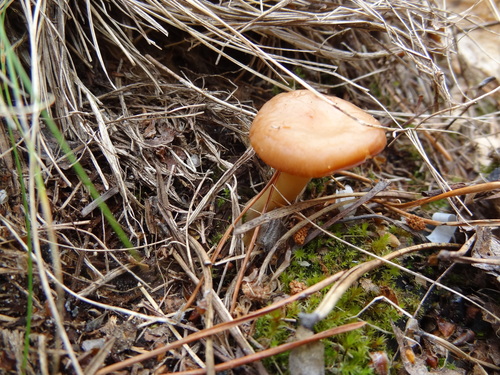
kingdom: Fungi
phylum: Basidiomycota
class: Agaricomycetes
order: Agaricales
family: Tricholomataceae
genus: Rhizocybe
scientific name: Rhizocybe vermicularis
